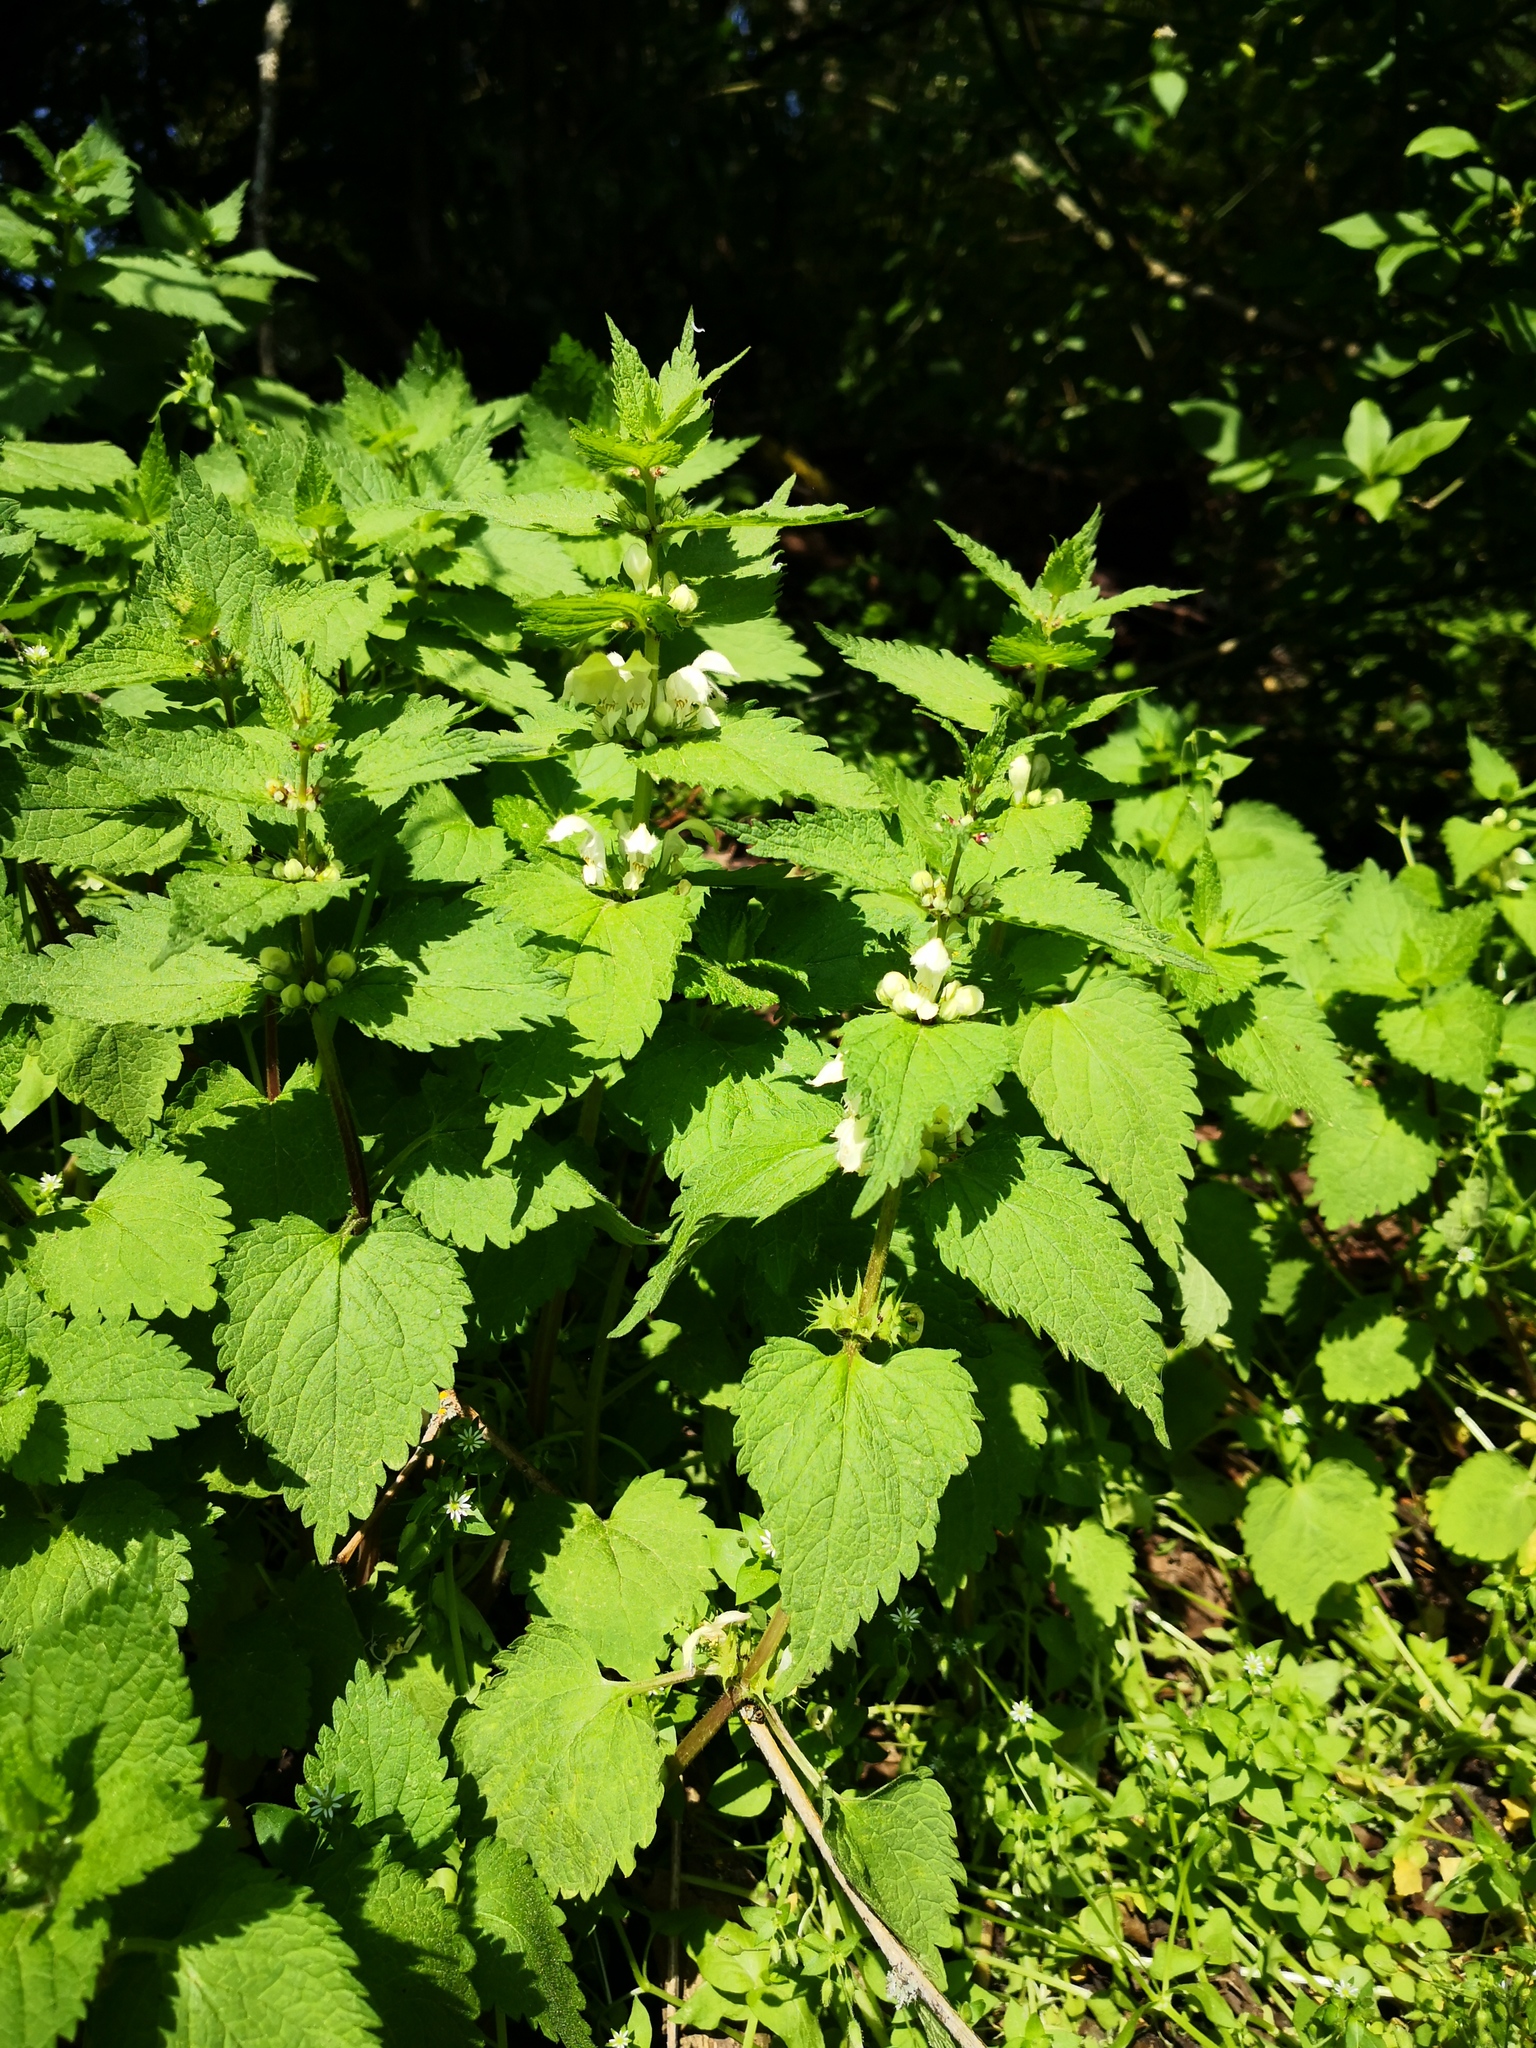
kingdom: Plantae
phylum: Tracheophyta
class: Magnoliopsida
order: Lamiales
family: Lamiaceae
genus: Lamium
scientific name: Lamium album
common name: White dead-nettle
